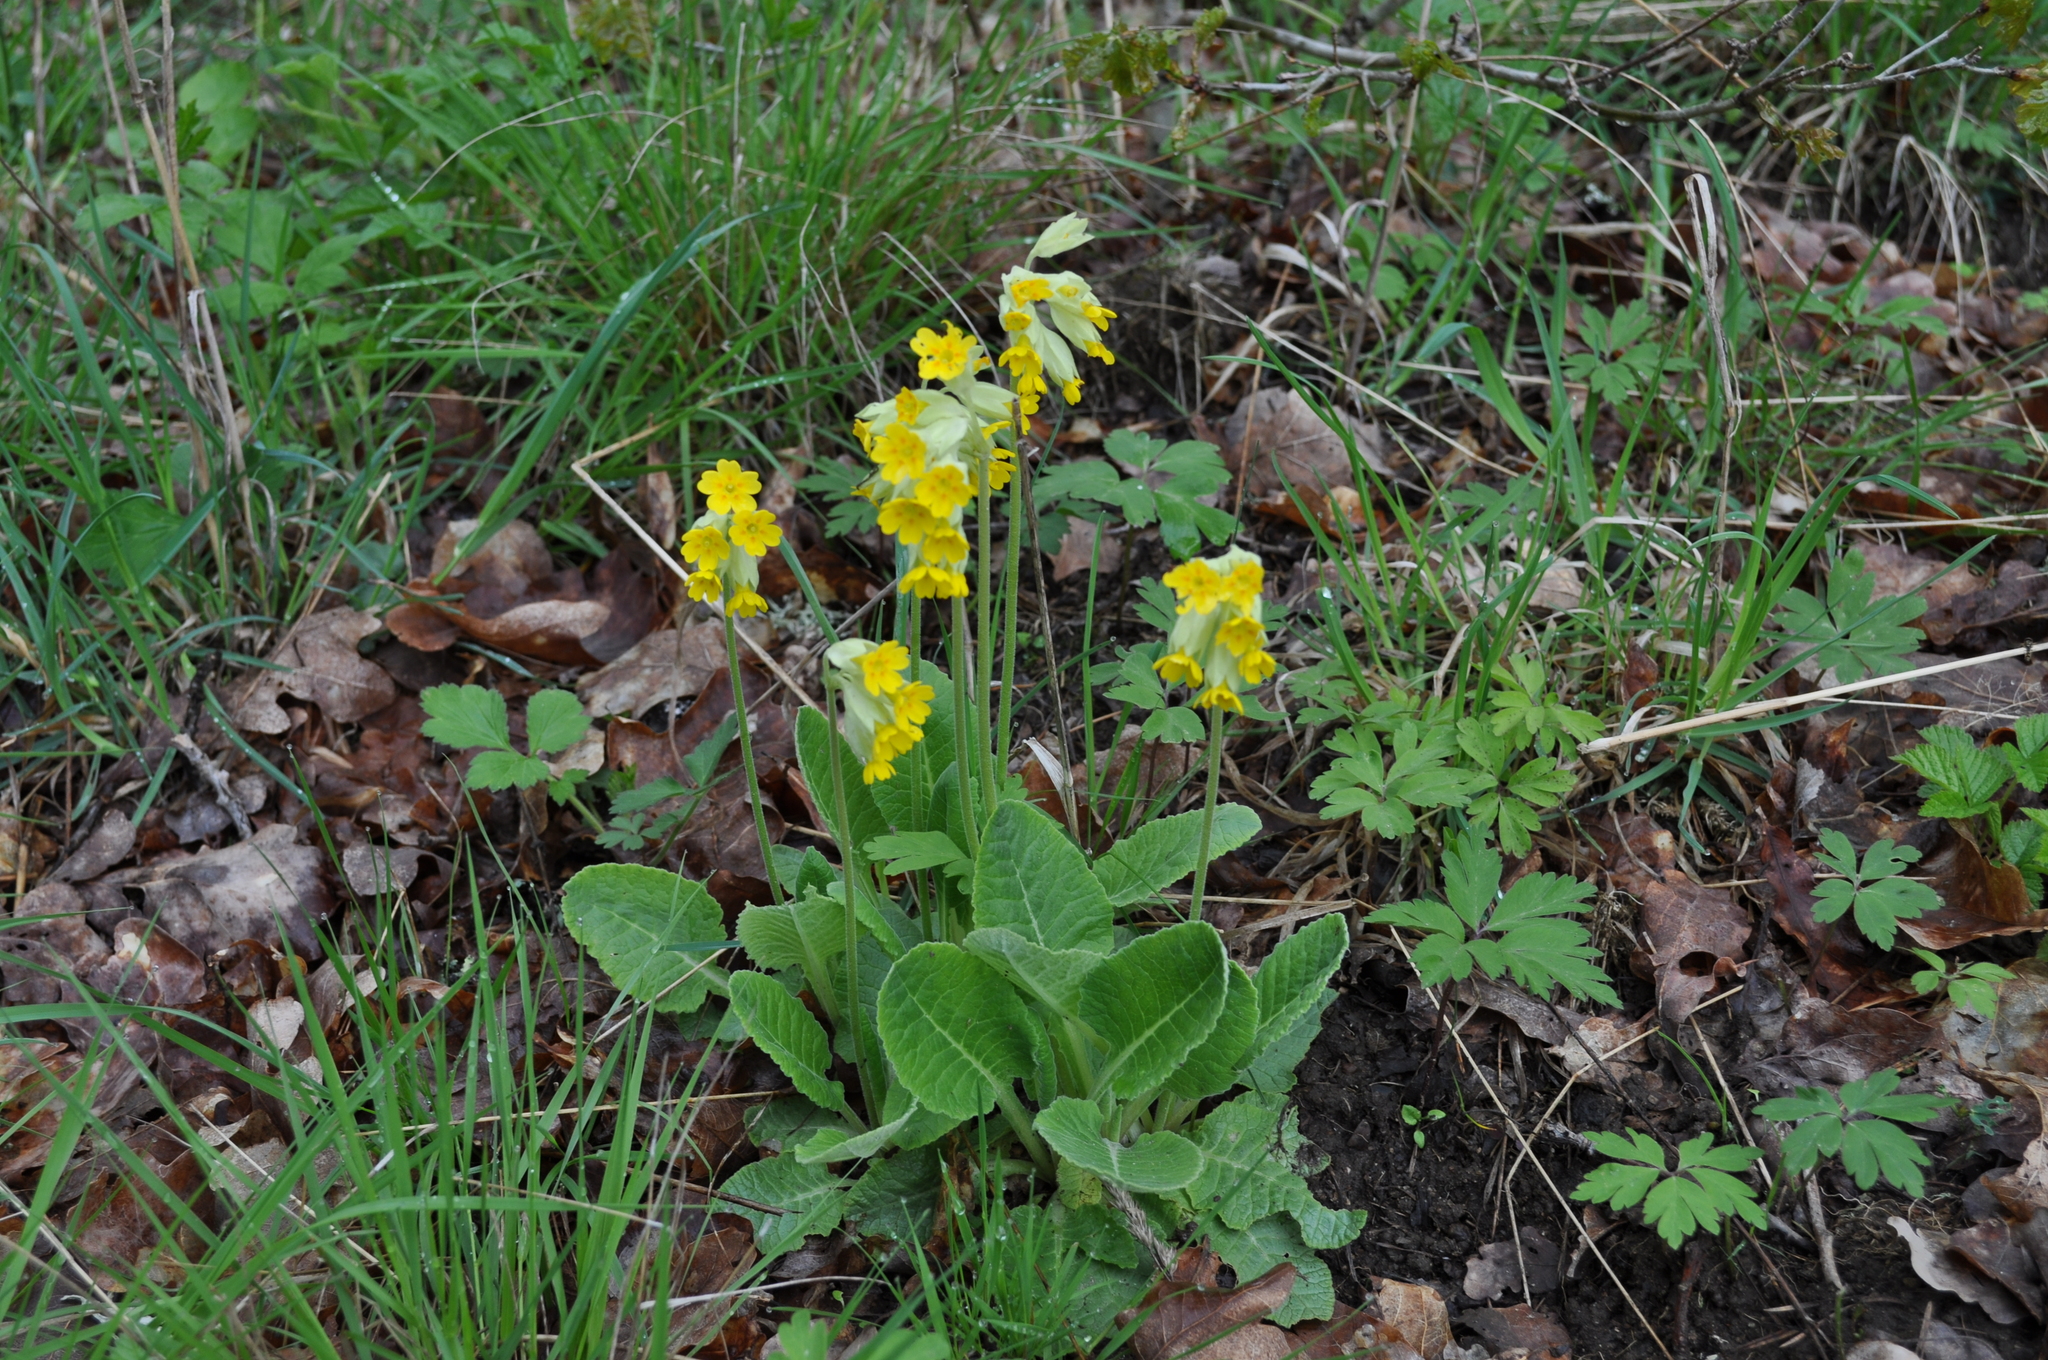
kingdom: Plantae
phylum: Tracheophyta
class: Magnoliopsida
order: Ericales
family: Primulaceae
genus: Primula
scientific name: Primula veris
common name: Cowslip
